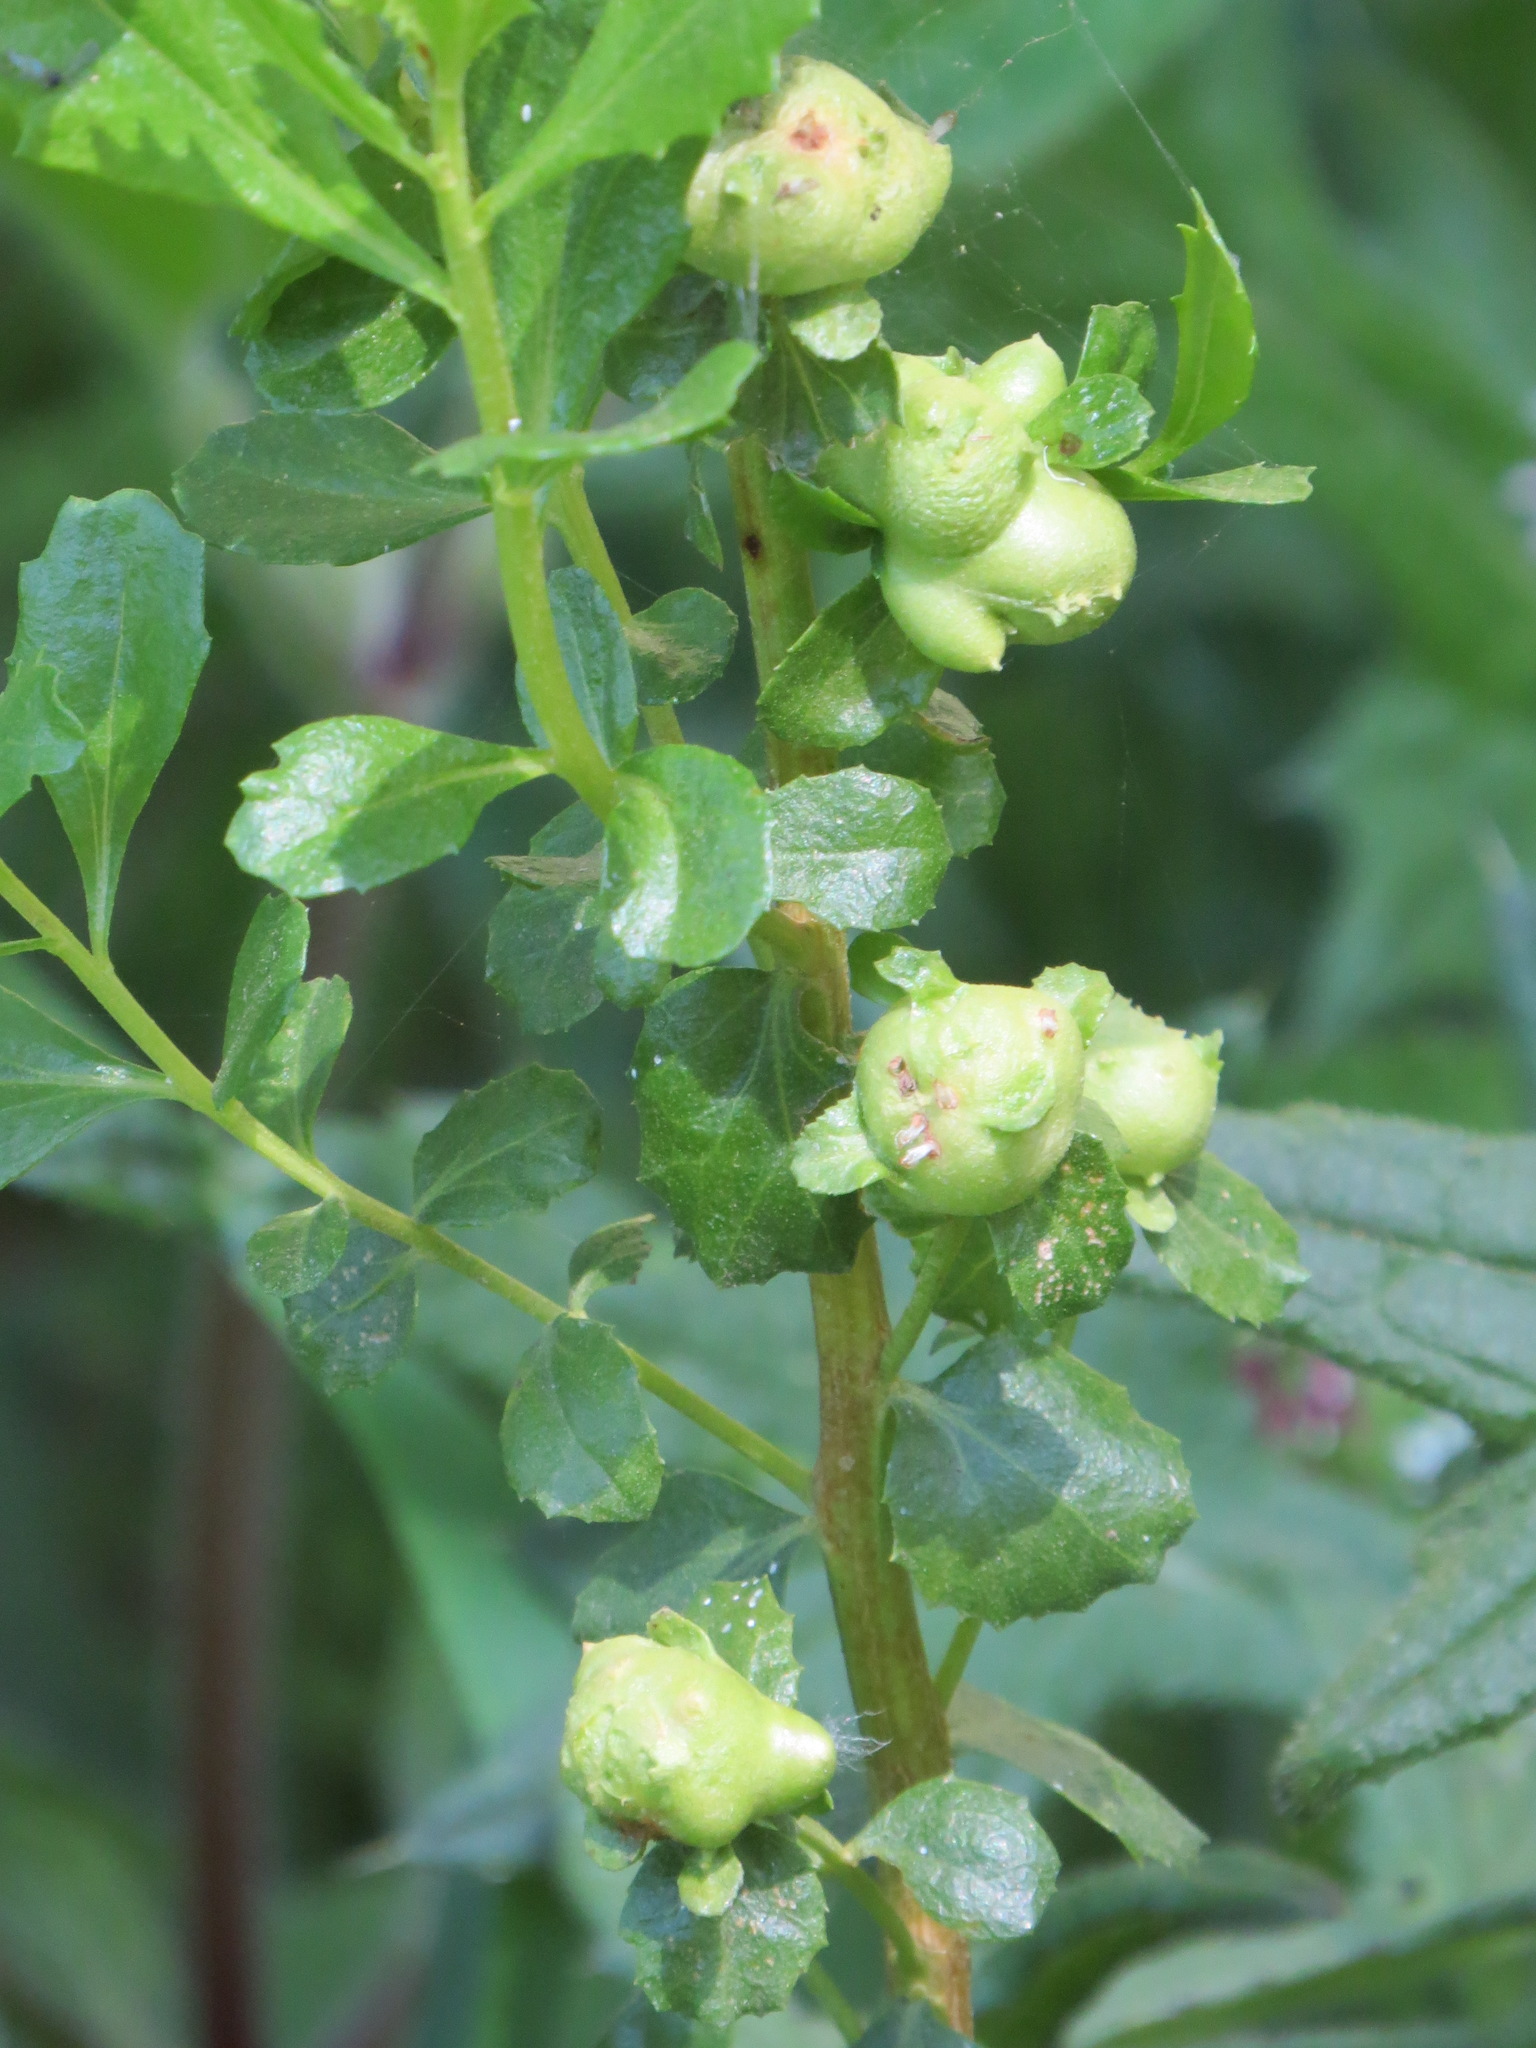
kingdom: Animalia
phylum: Arthropoda
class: Insecta
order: Diptera
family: Cecidomyiidae
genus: Rhopalomyia
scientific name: Rhopalomyia californica
